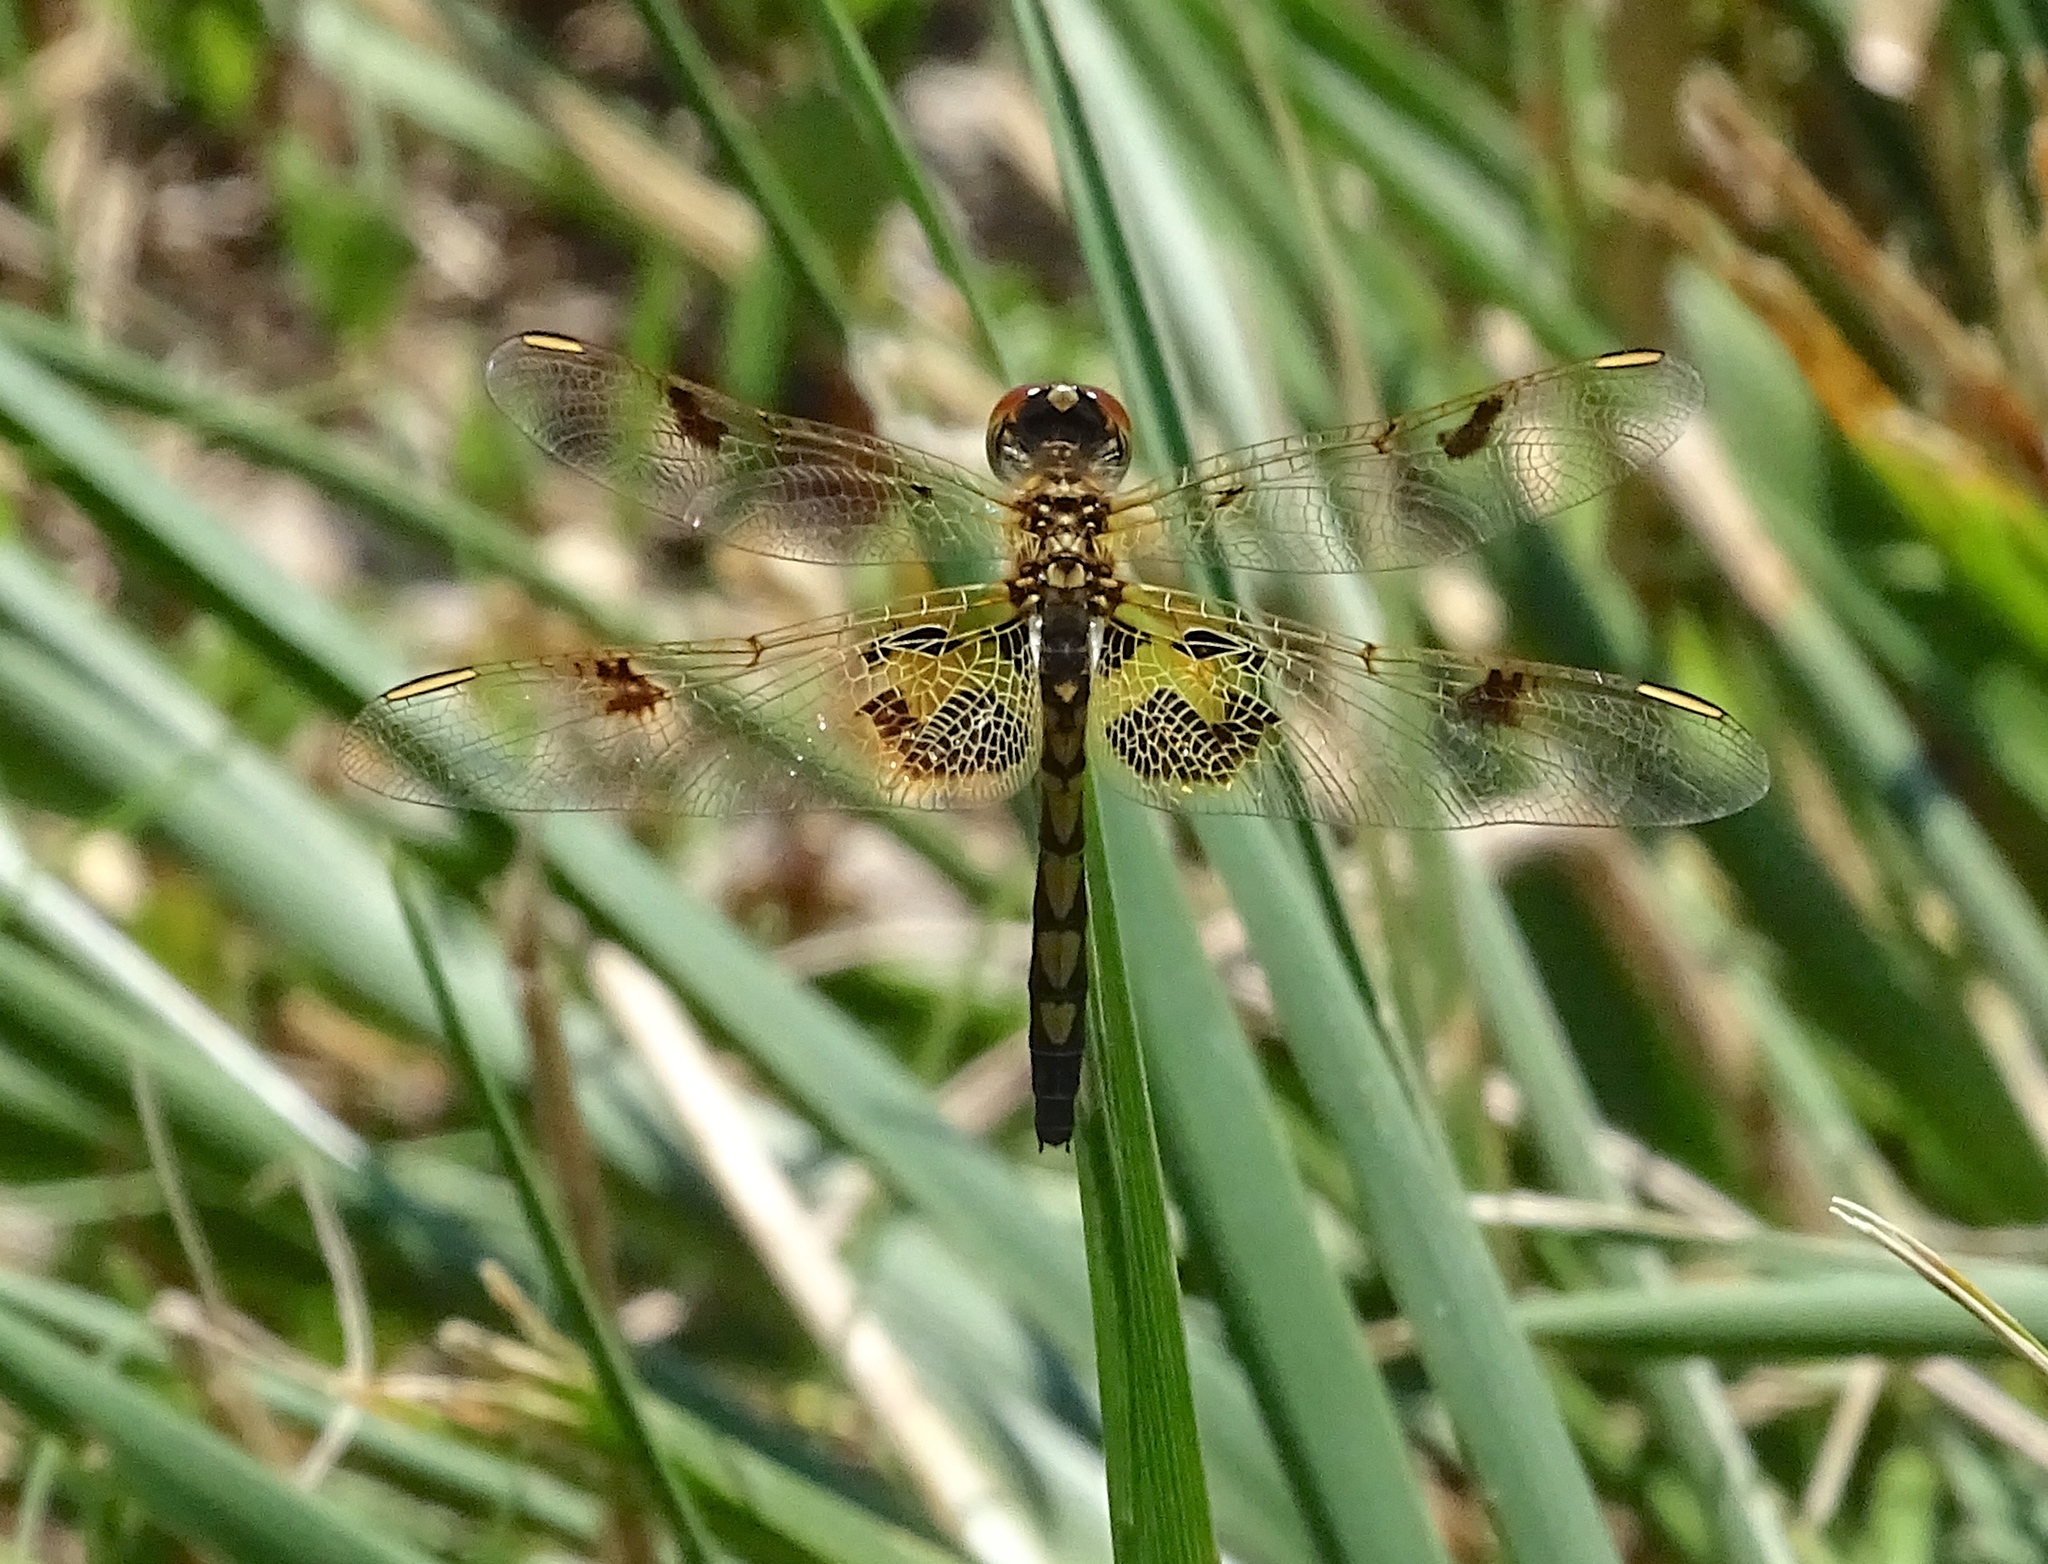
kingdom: Animalia
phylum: Arthropoda
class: Insecta
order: Odonata
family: Libellulidae
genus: Celithemis
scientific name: Celithemis elisa
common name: Calico pennant
